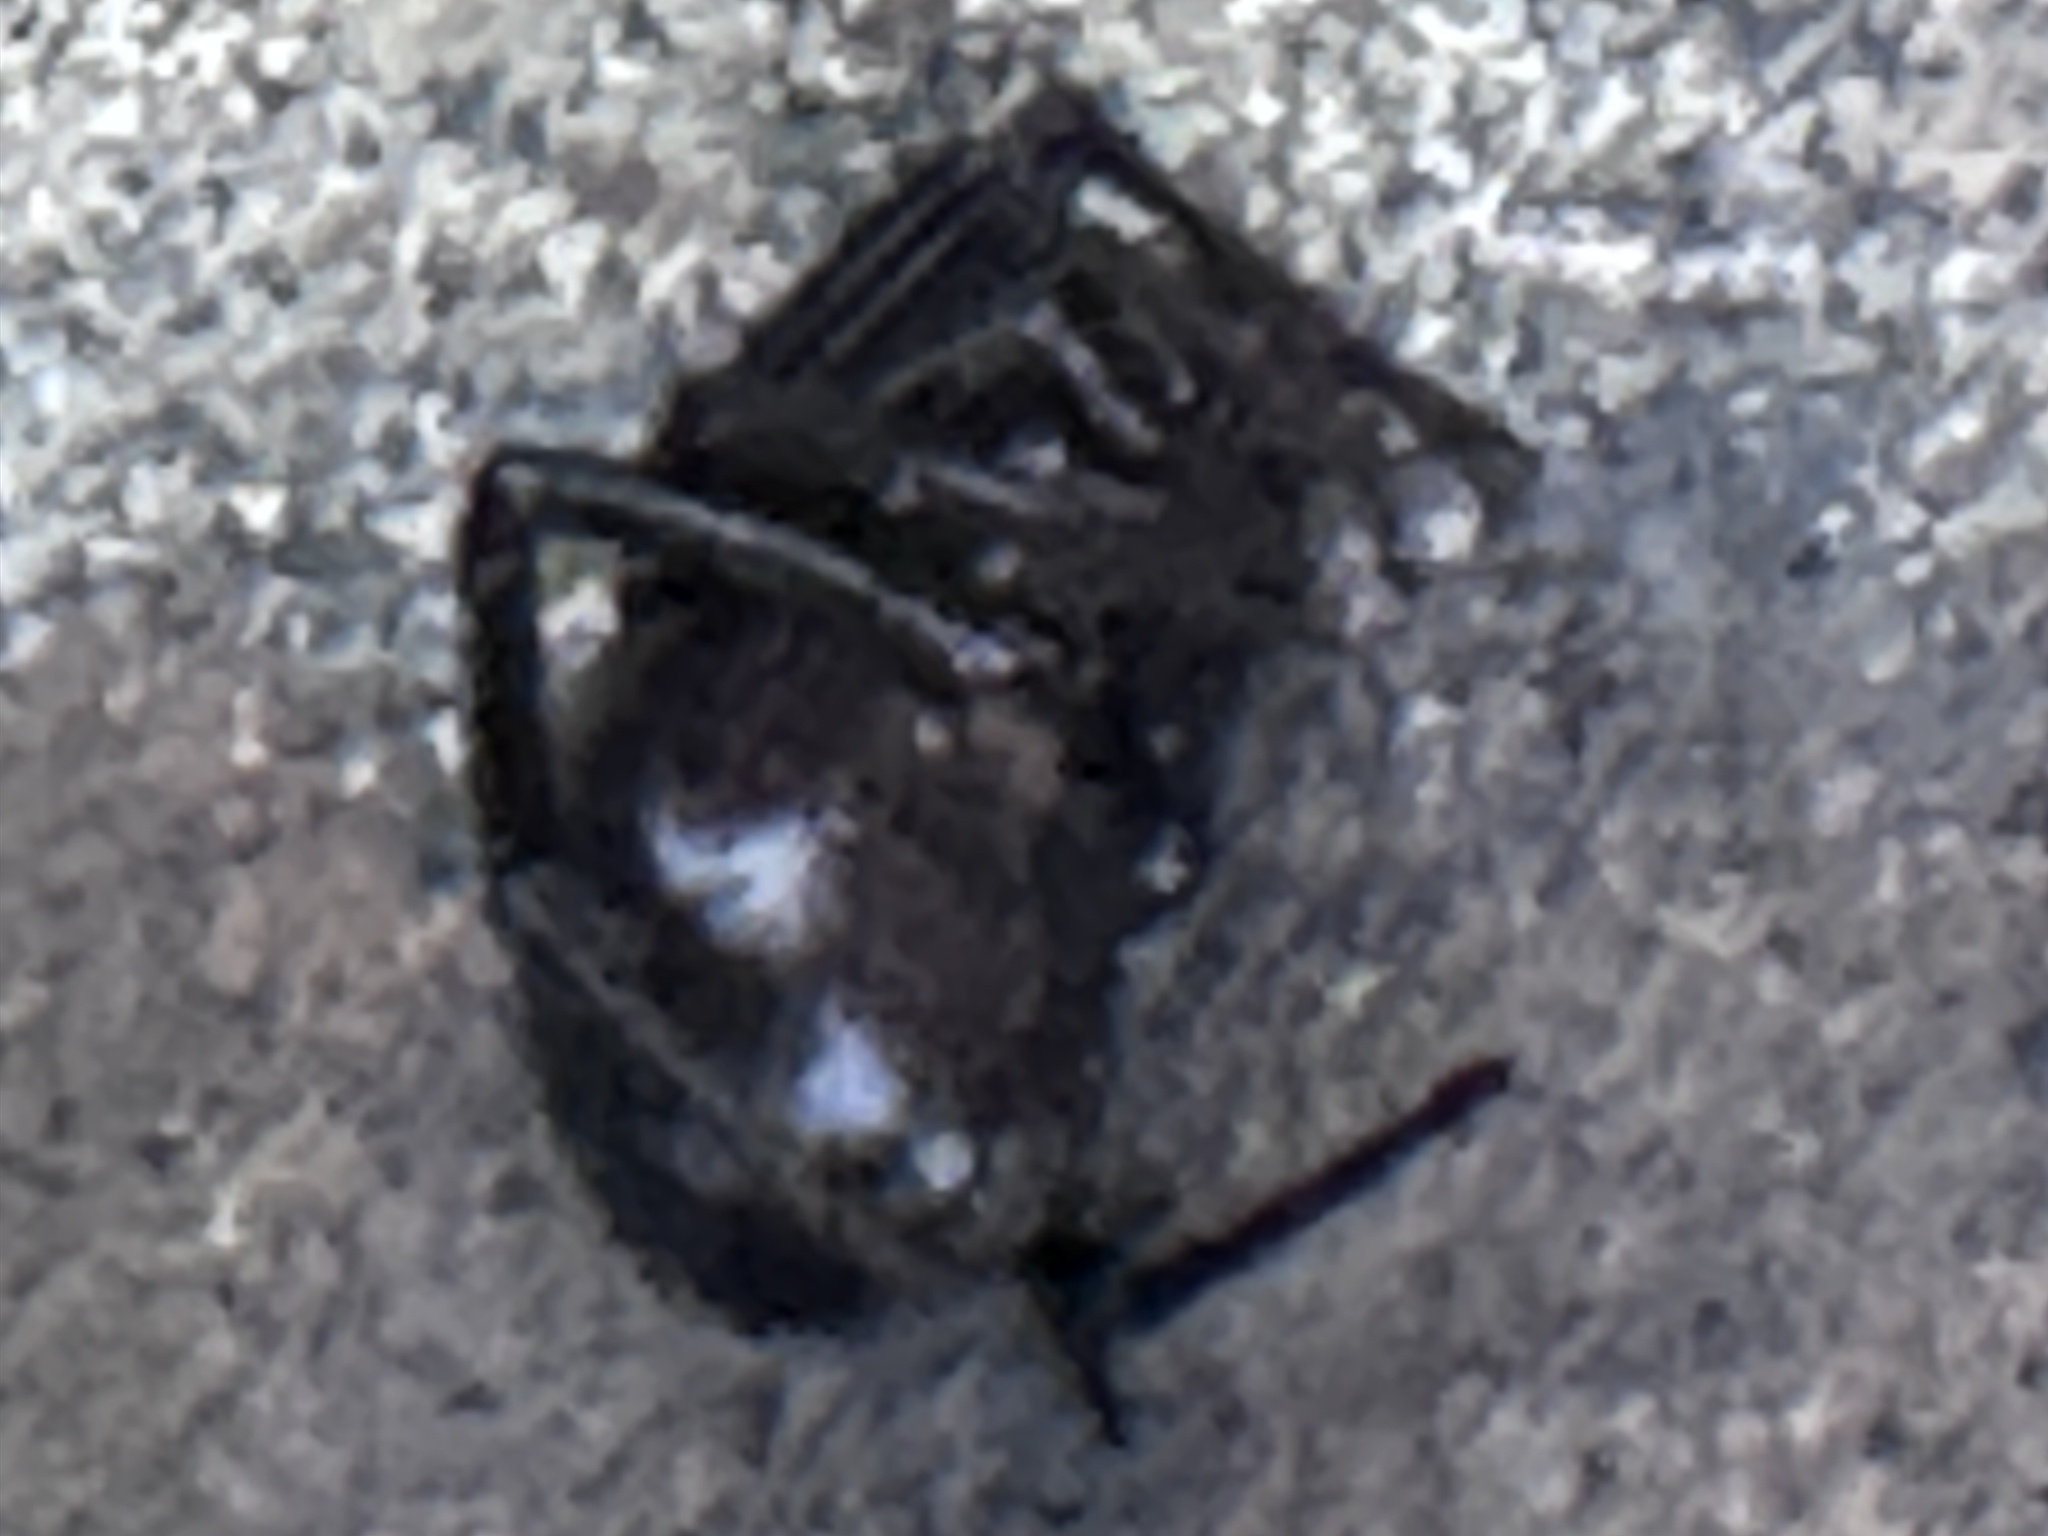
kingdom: Animalia
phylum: Arthropoda
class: Arachnida
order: Araneae
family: Theridiidae
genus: Steatoda
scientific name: Steatoda grossa
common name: False black widow
